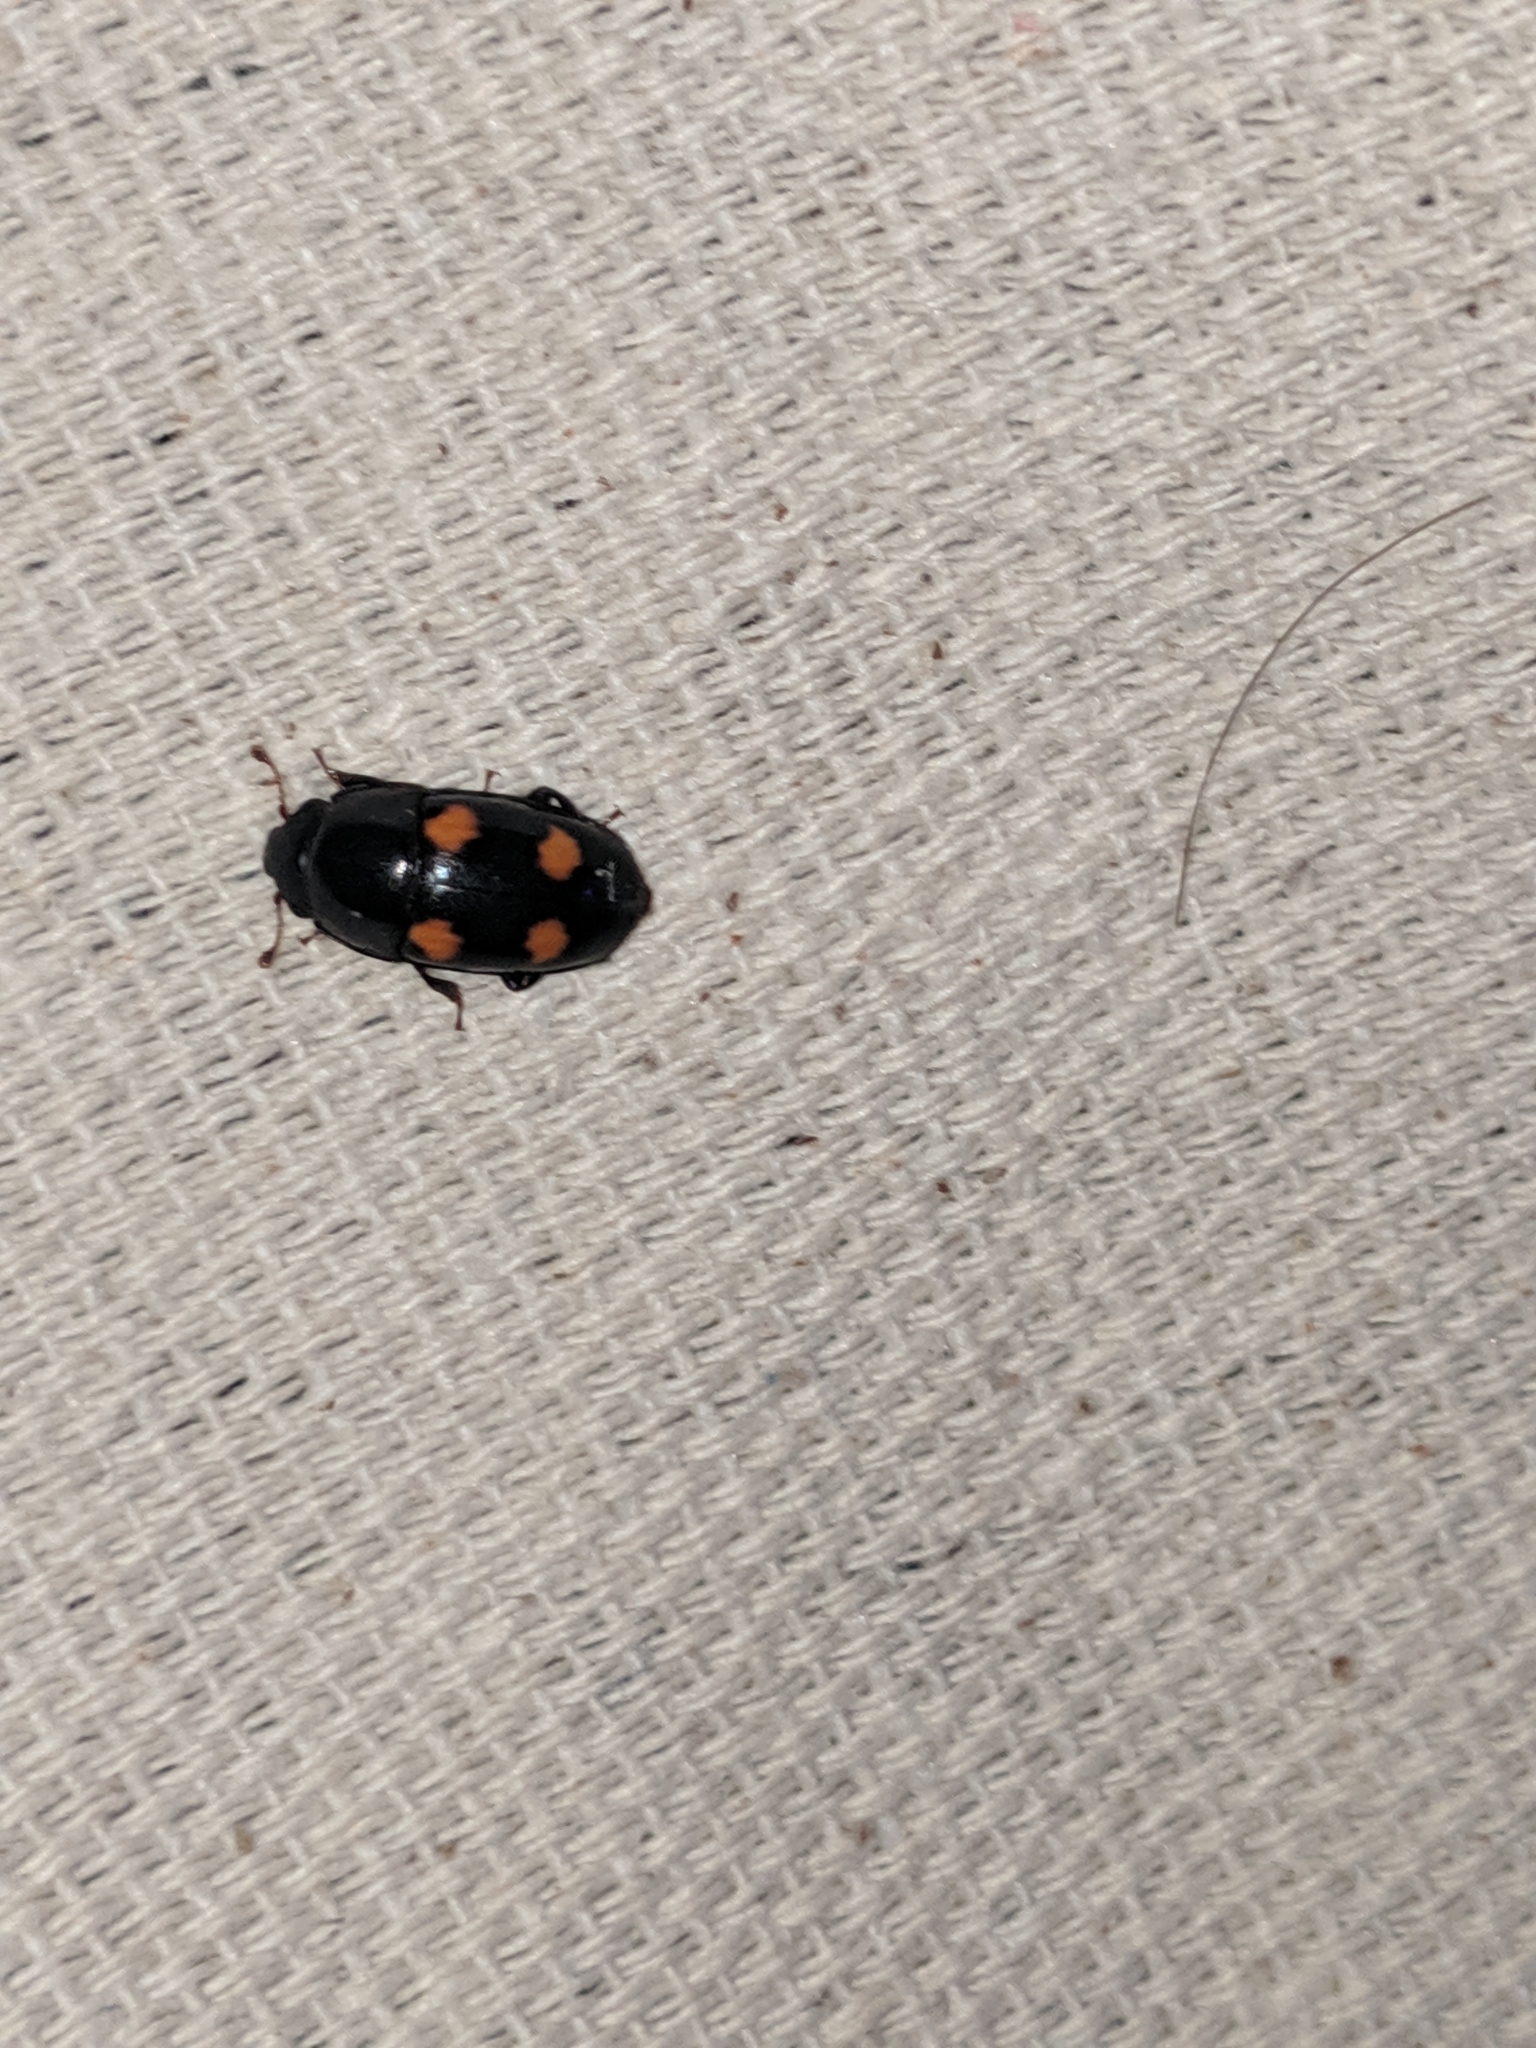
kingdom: Animalia
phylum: Arthropoda
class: Insecta
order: Coleoptera
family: Nitidulidae
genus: Glischrochilus
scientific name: Glischrochilus obtusus
